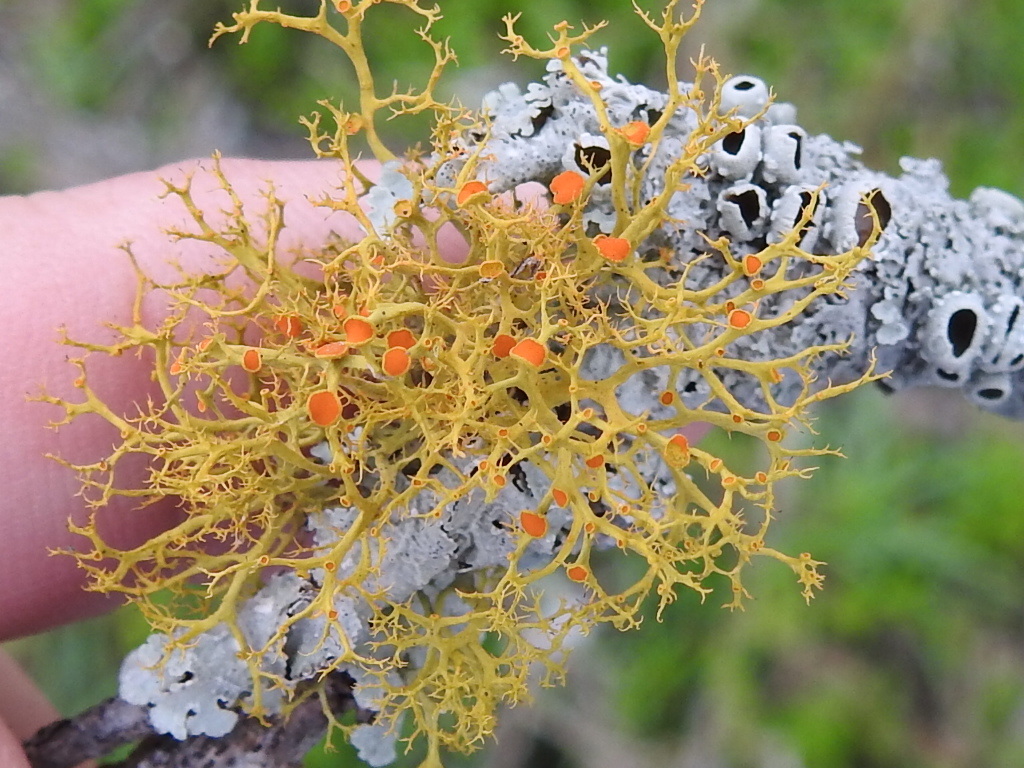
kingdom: Fungi
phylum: Ascomycota
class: Lecanoromycetes
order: Teloschistales
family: Teloschistaceae
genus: Teloschistes
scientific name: Teloschistes exilis
